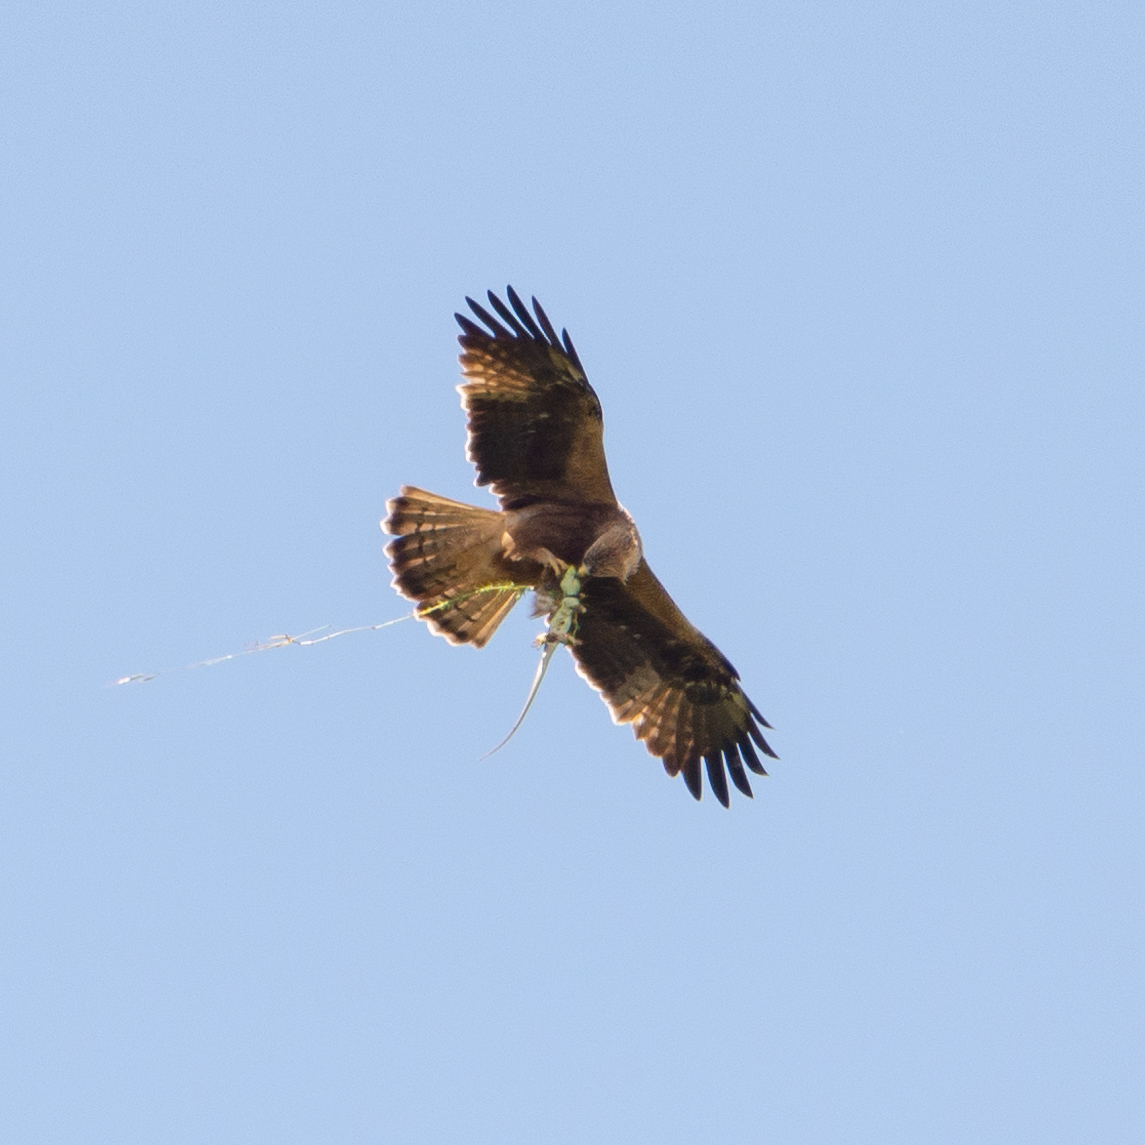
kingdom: Animalia
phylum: Chordata
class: Aves
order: Accipitriformes
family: Accipitridae
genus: Hieraaetus
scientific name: Hieraaetus pennatus
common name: Booted eagle
